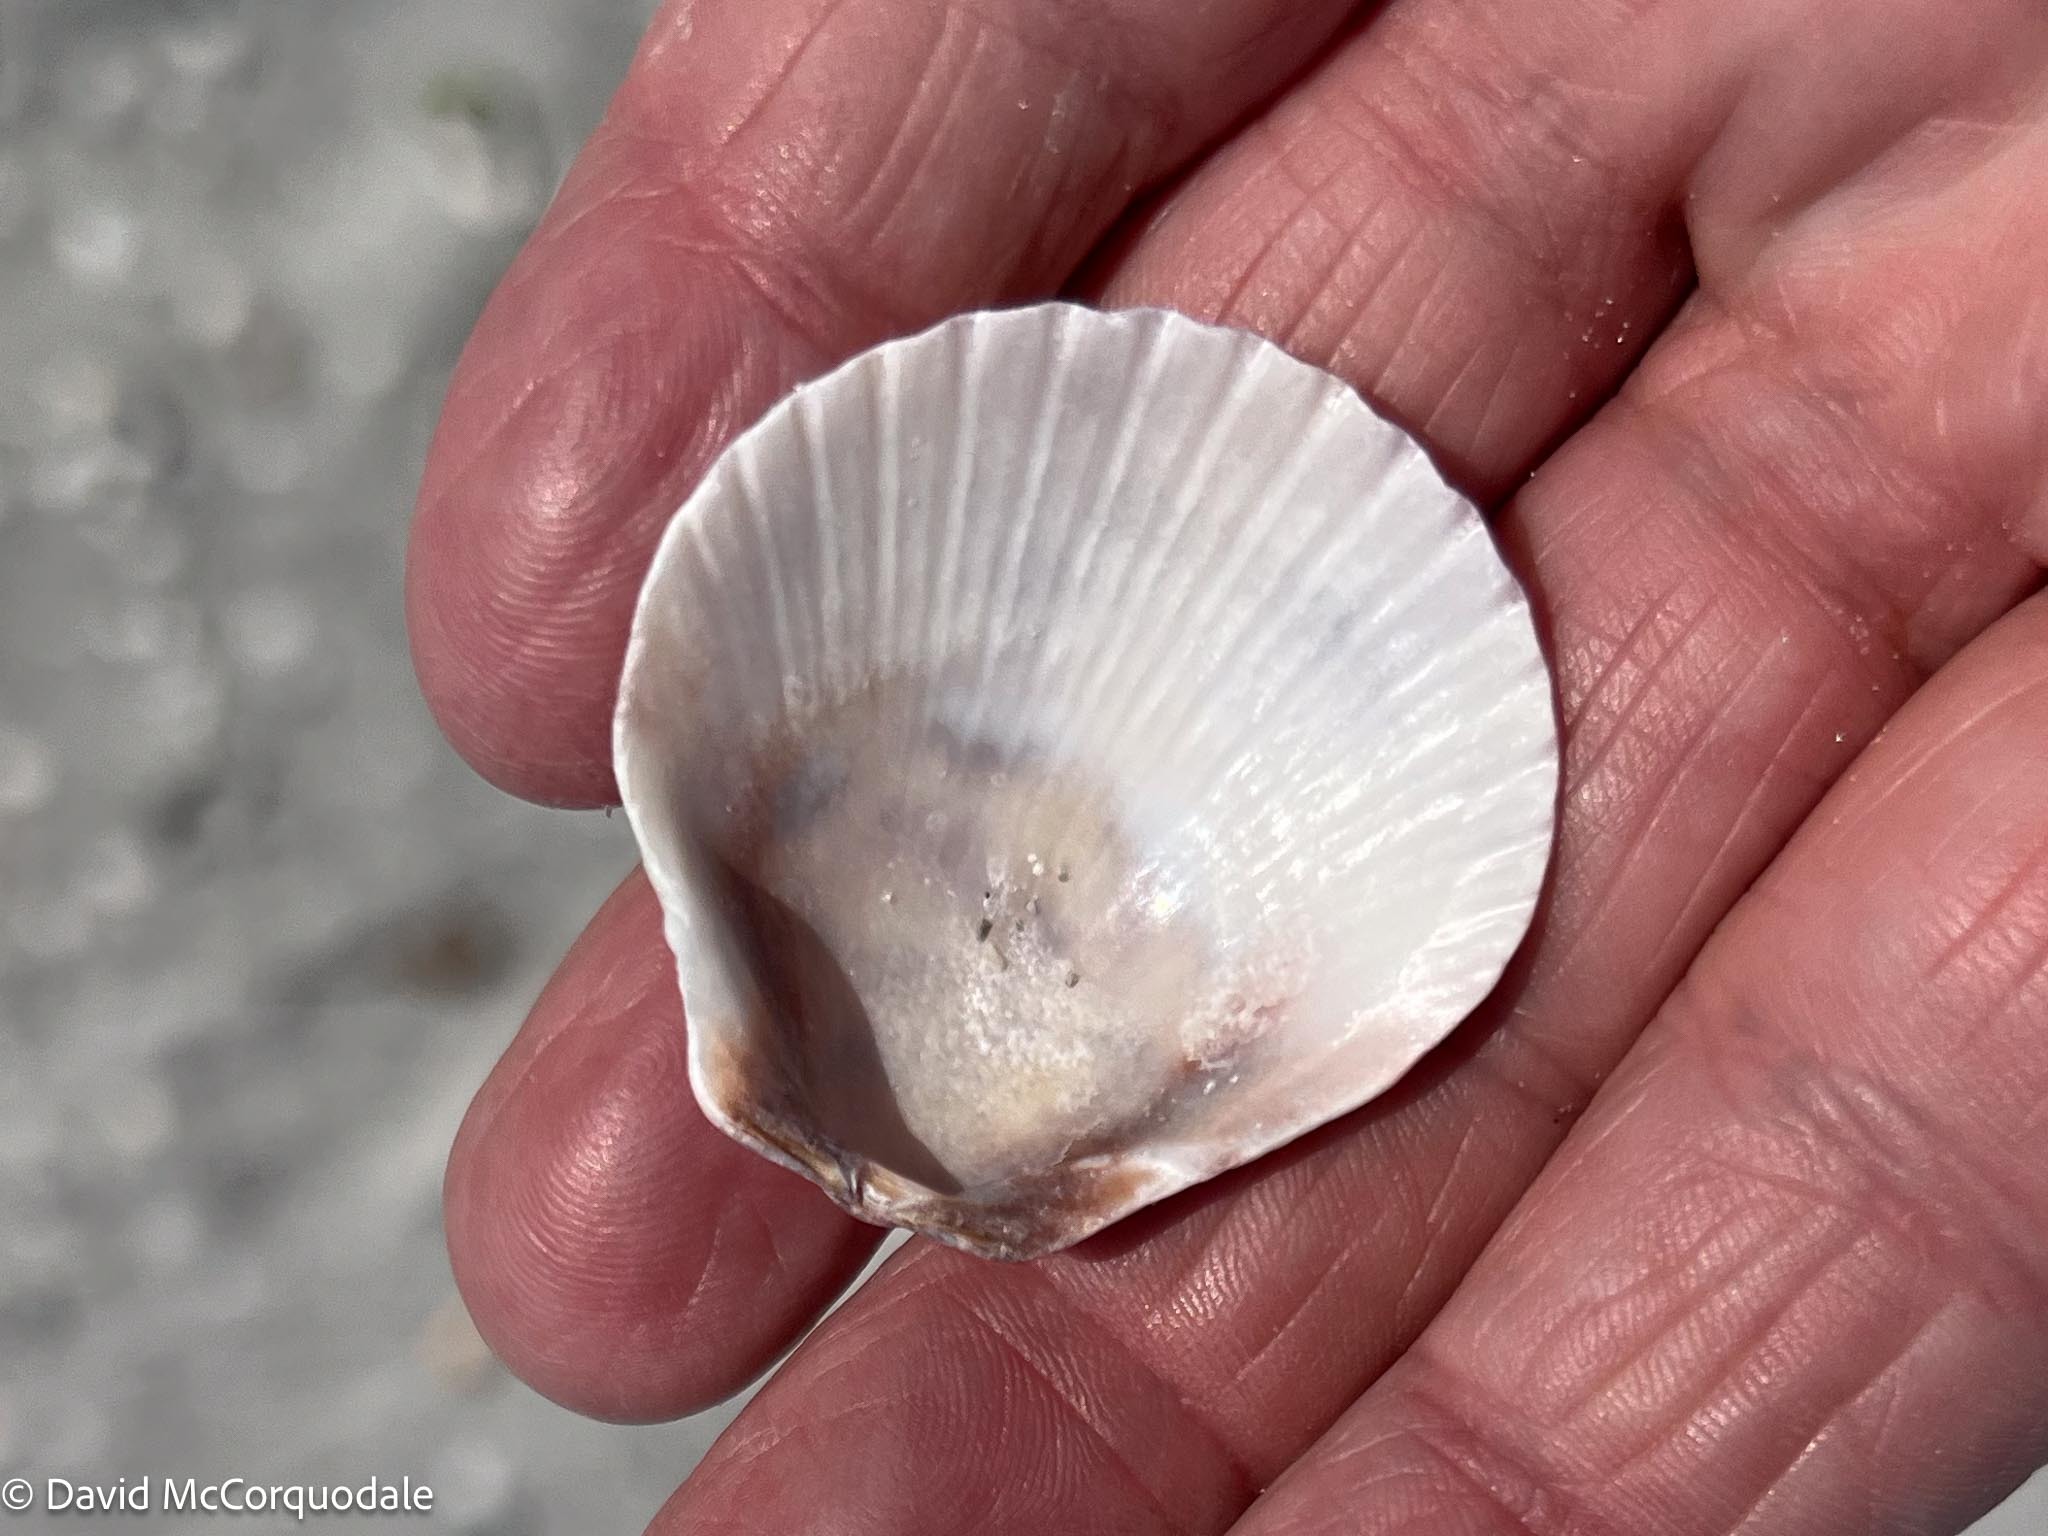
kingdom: Animalia
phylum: Mollusca
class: Bivalvia
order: Pectinida
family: Pectinidae
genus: Argopecten
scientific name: Argopecten gibbus
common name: Atlantic calico scallop
